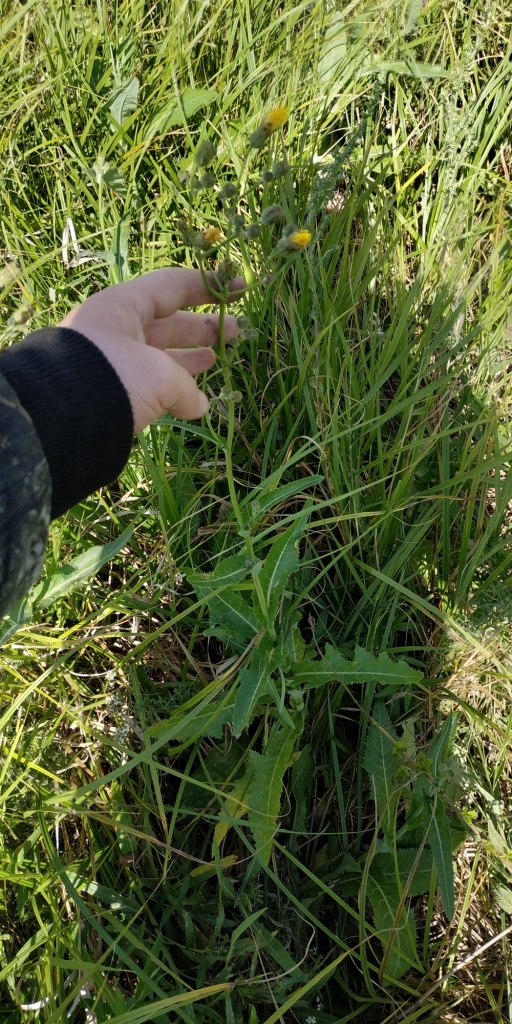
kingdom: Plantae
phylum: Tracheophyta
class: Magnoliopsida
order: Asterales
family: Asteraceae
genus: Sonchus
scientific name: Sonchus arvensis
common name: Perennial sow-thistle
